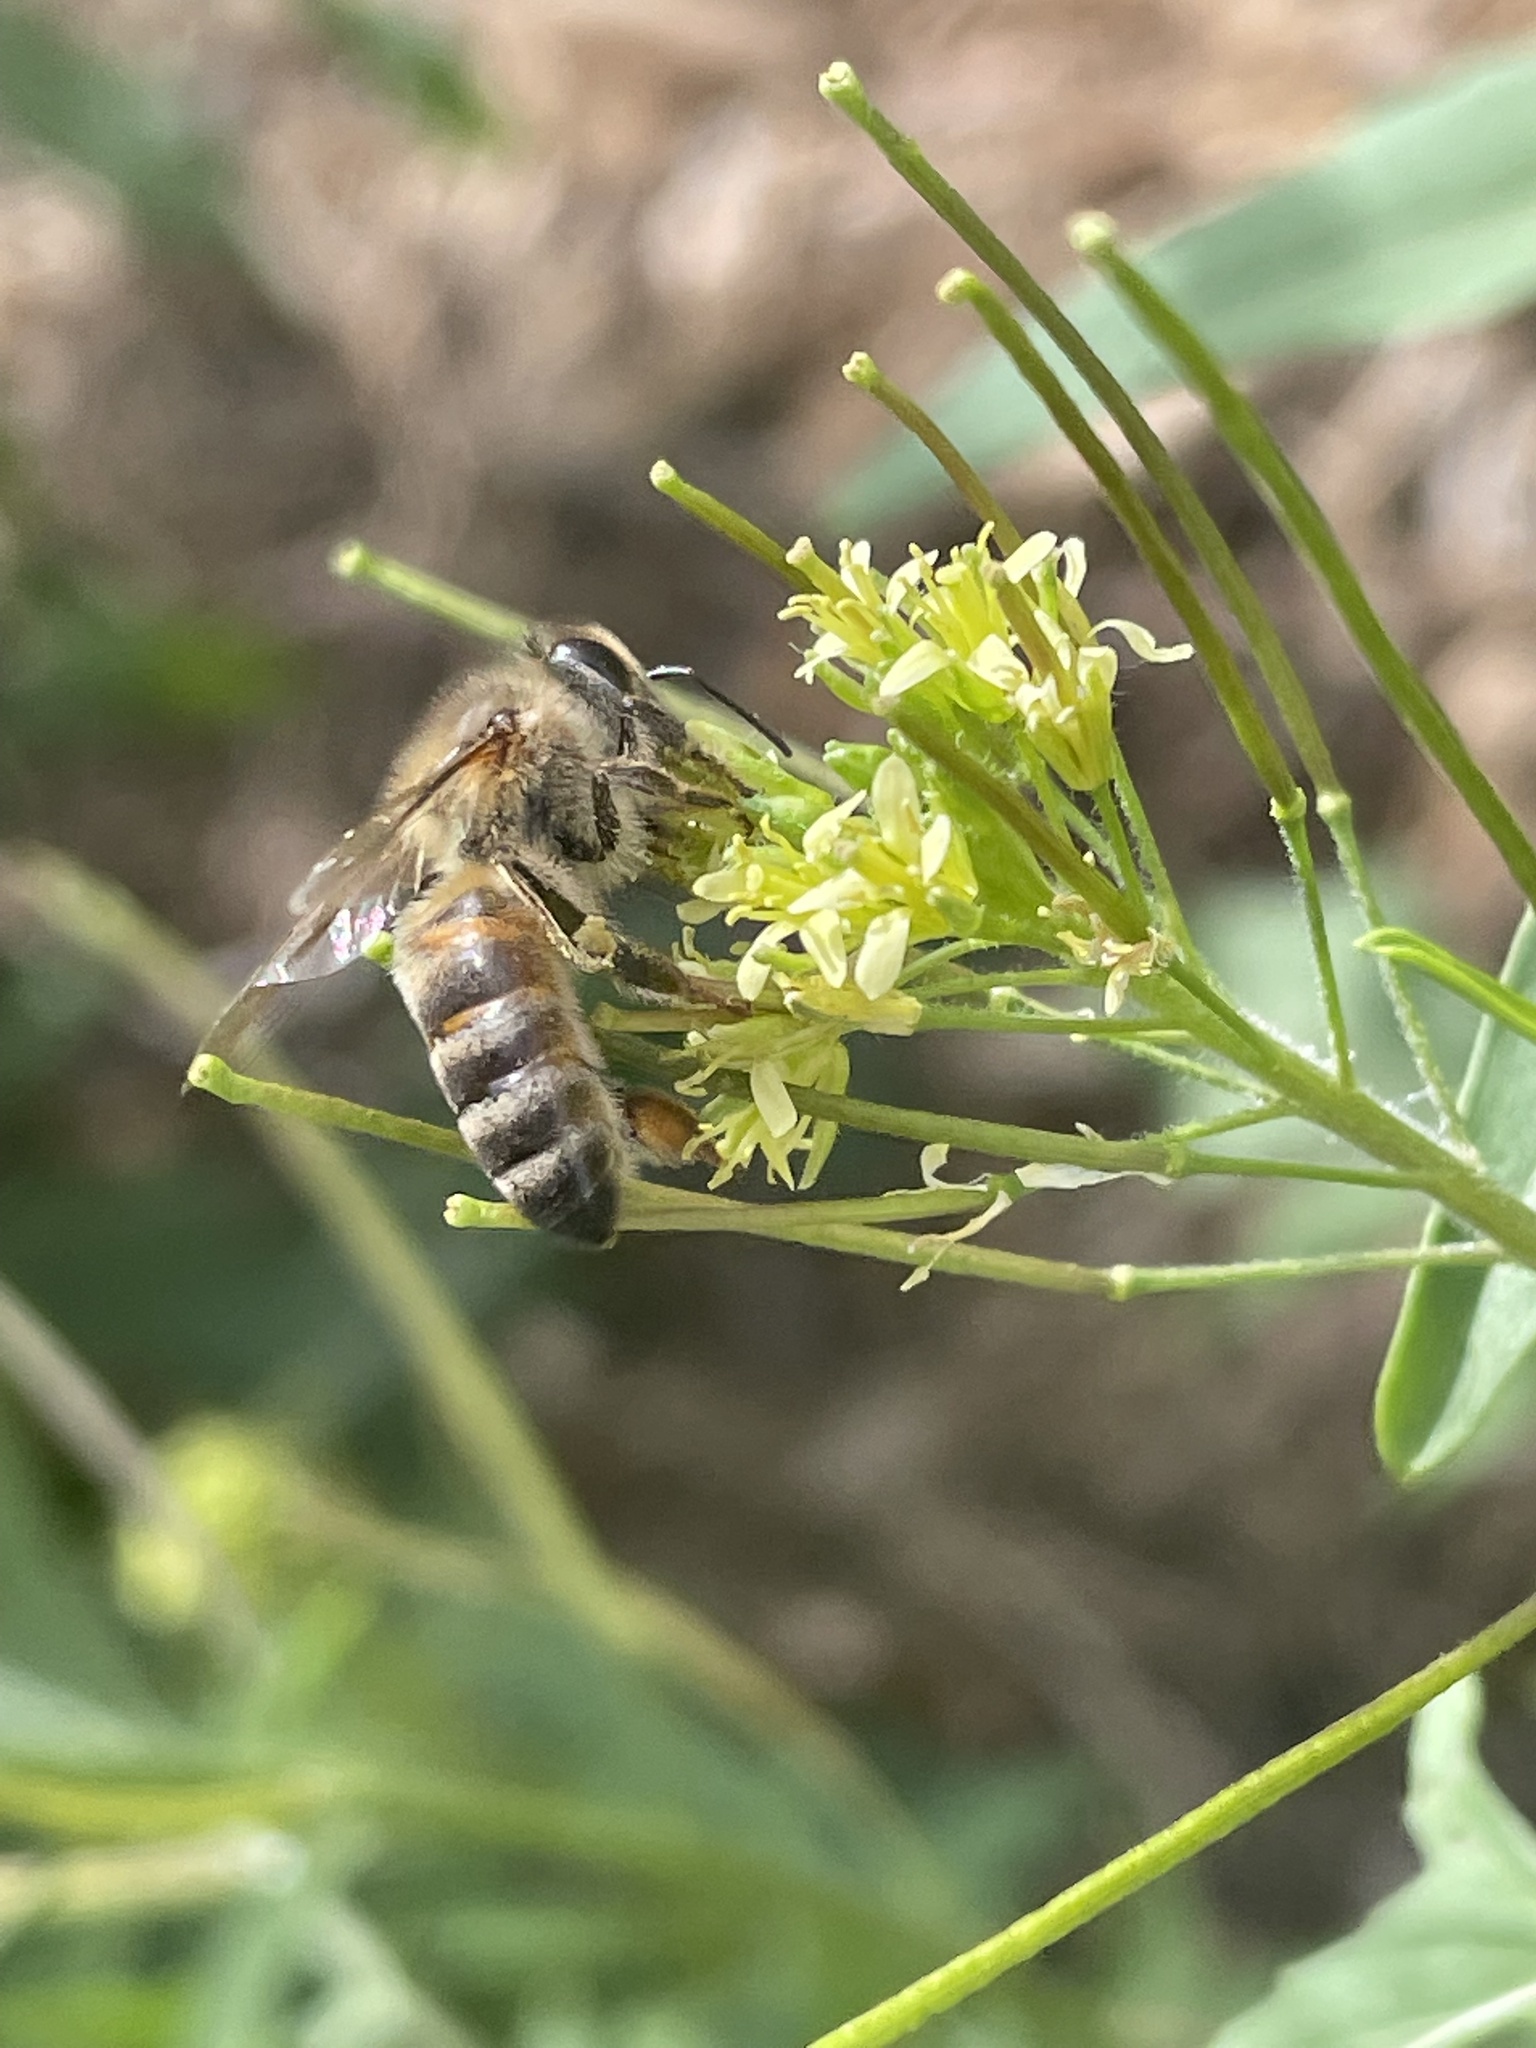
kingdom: Animalia
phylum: Arthropoda
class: Insecta
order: Hymenoptera
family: Apidae
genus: Apis
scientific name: Apis mellifera
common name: Honey bee
